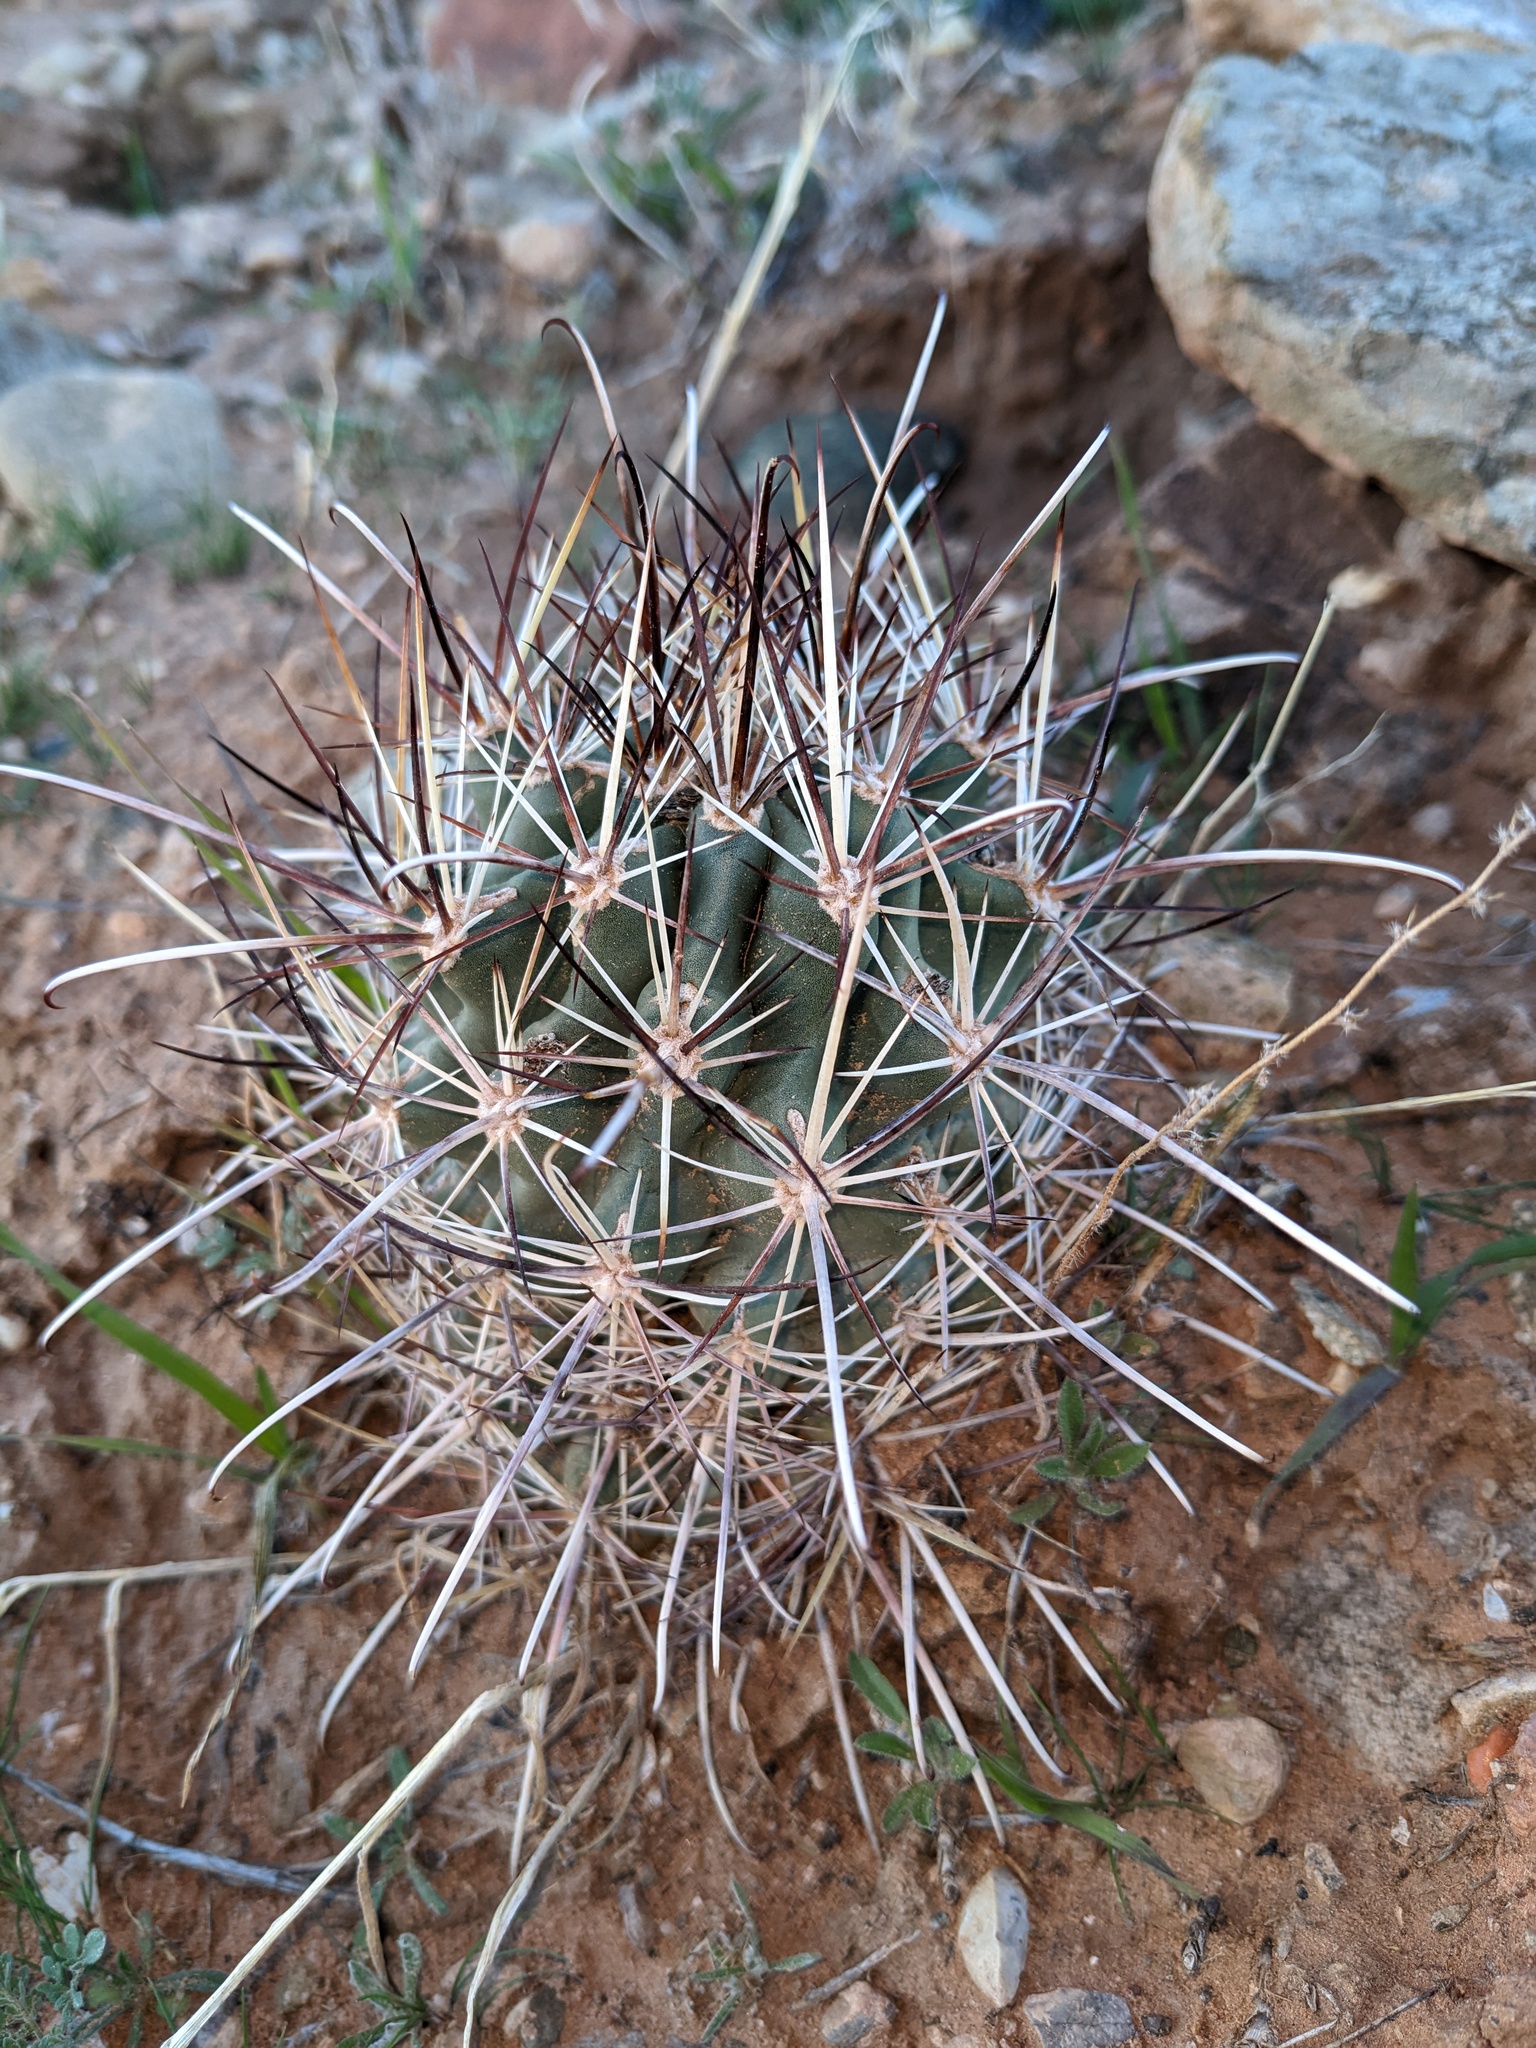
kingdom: Plantae
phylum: Tracheophyta
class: Magnoliopsida
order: Caryophyllales
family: Cactaceae
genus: Sclerocactus
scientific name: Sclerocactus parviflorus
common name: Small-flower fishhook cactus
